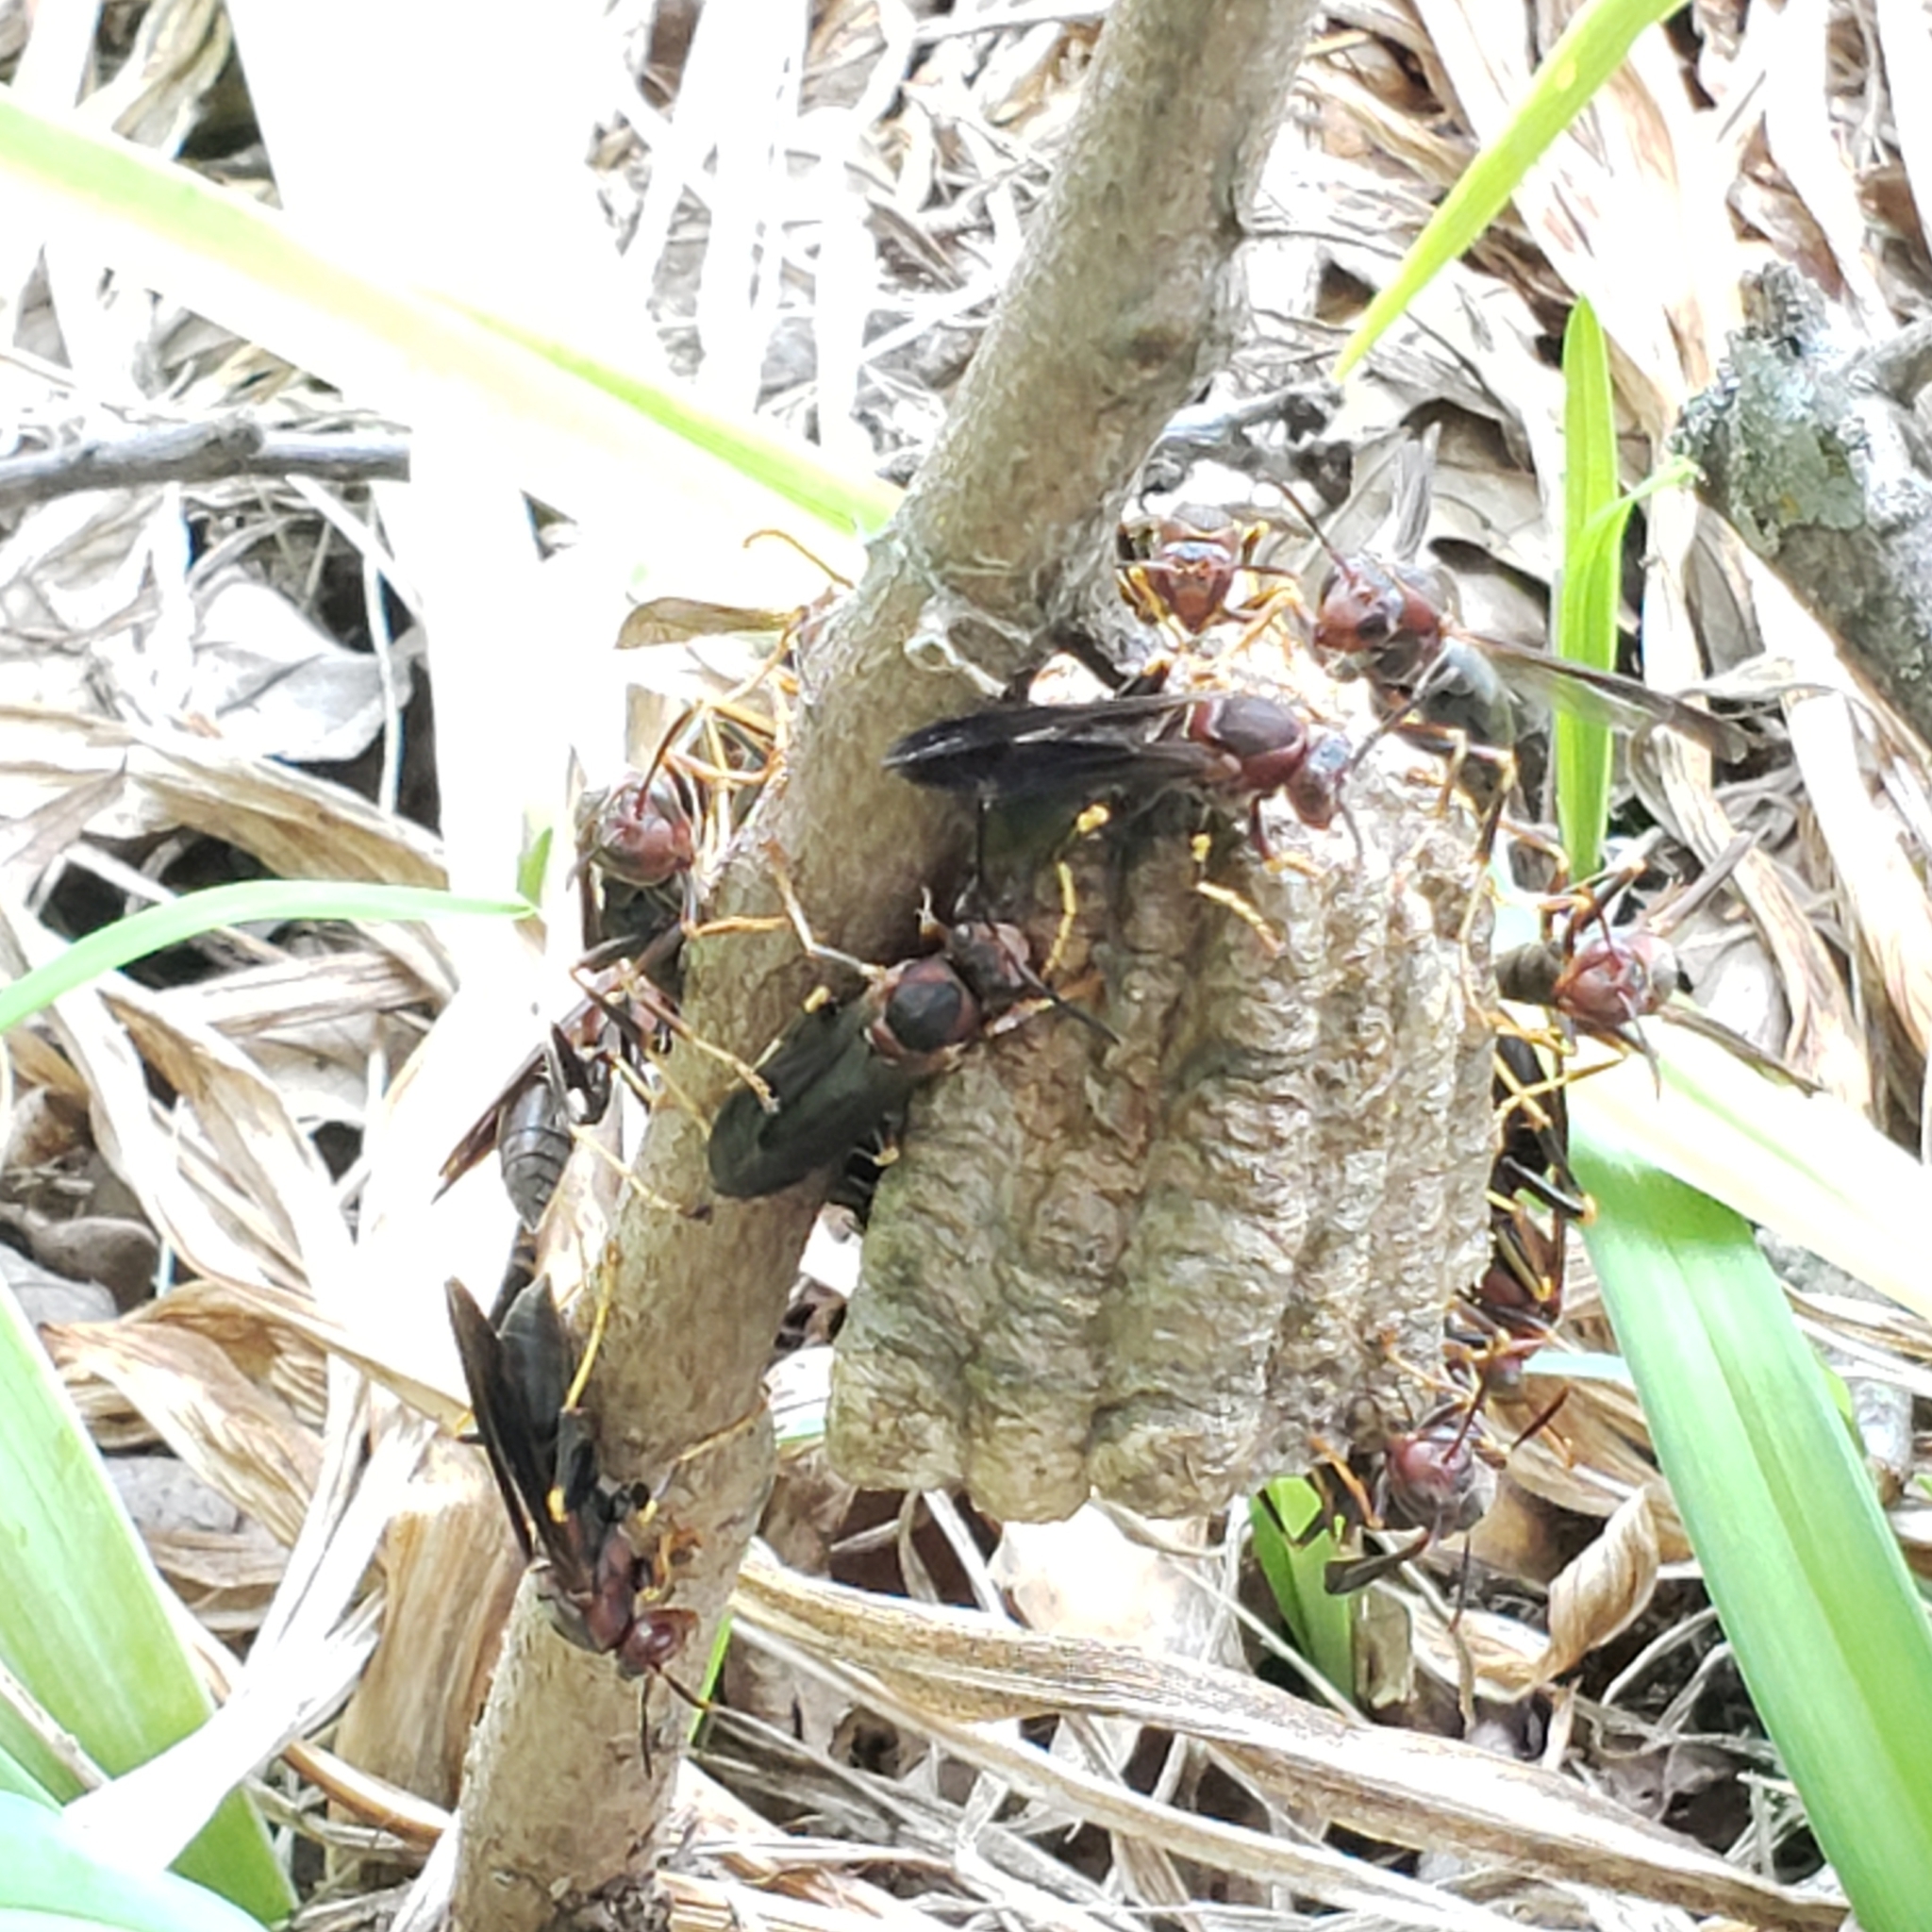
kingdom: Animalia
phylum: Arthropoda
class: Insecta
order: Hymenoptera
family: Eumenidae
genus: Polistes
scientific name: Polistes metricus
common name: Metric paper wasp
